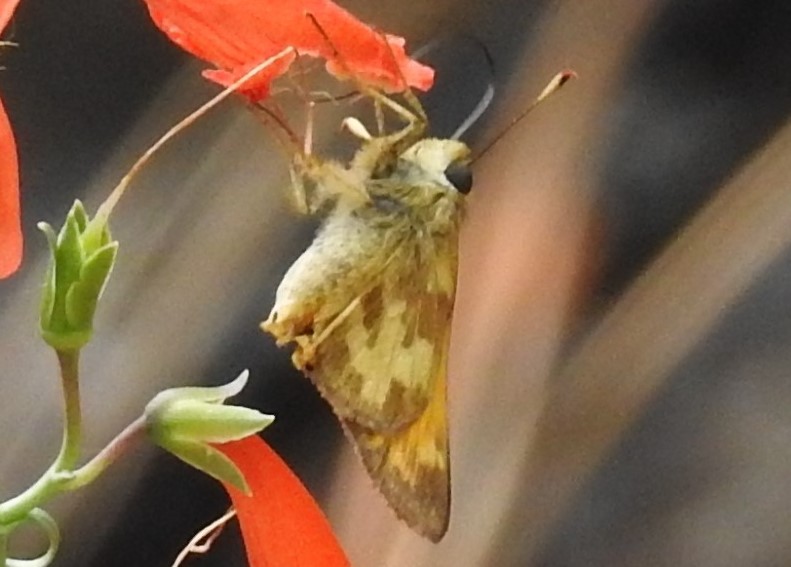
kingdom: Animalia
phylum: Arthropoda
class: Insecta
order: Lepidoptera
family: Hesperiidae
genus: Lon
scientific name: Lon taxiles
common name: Taxiles skipper
